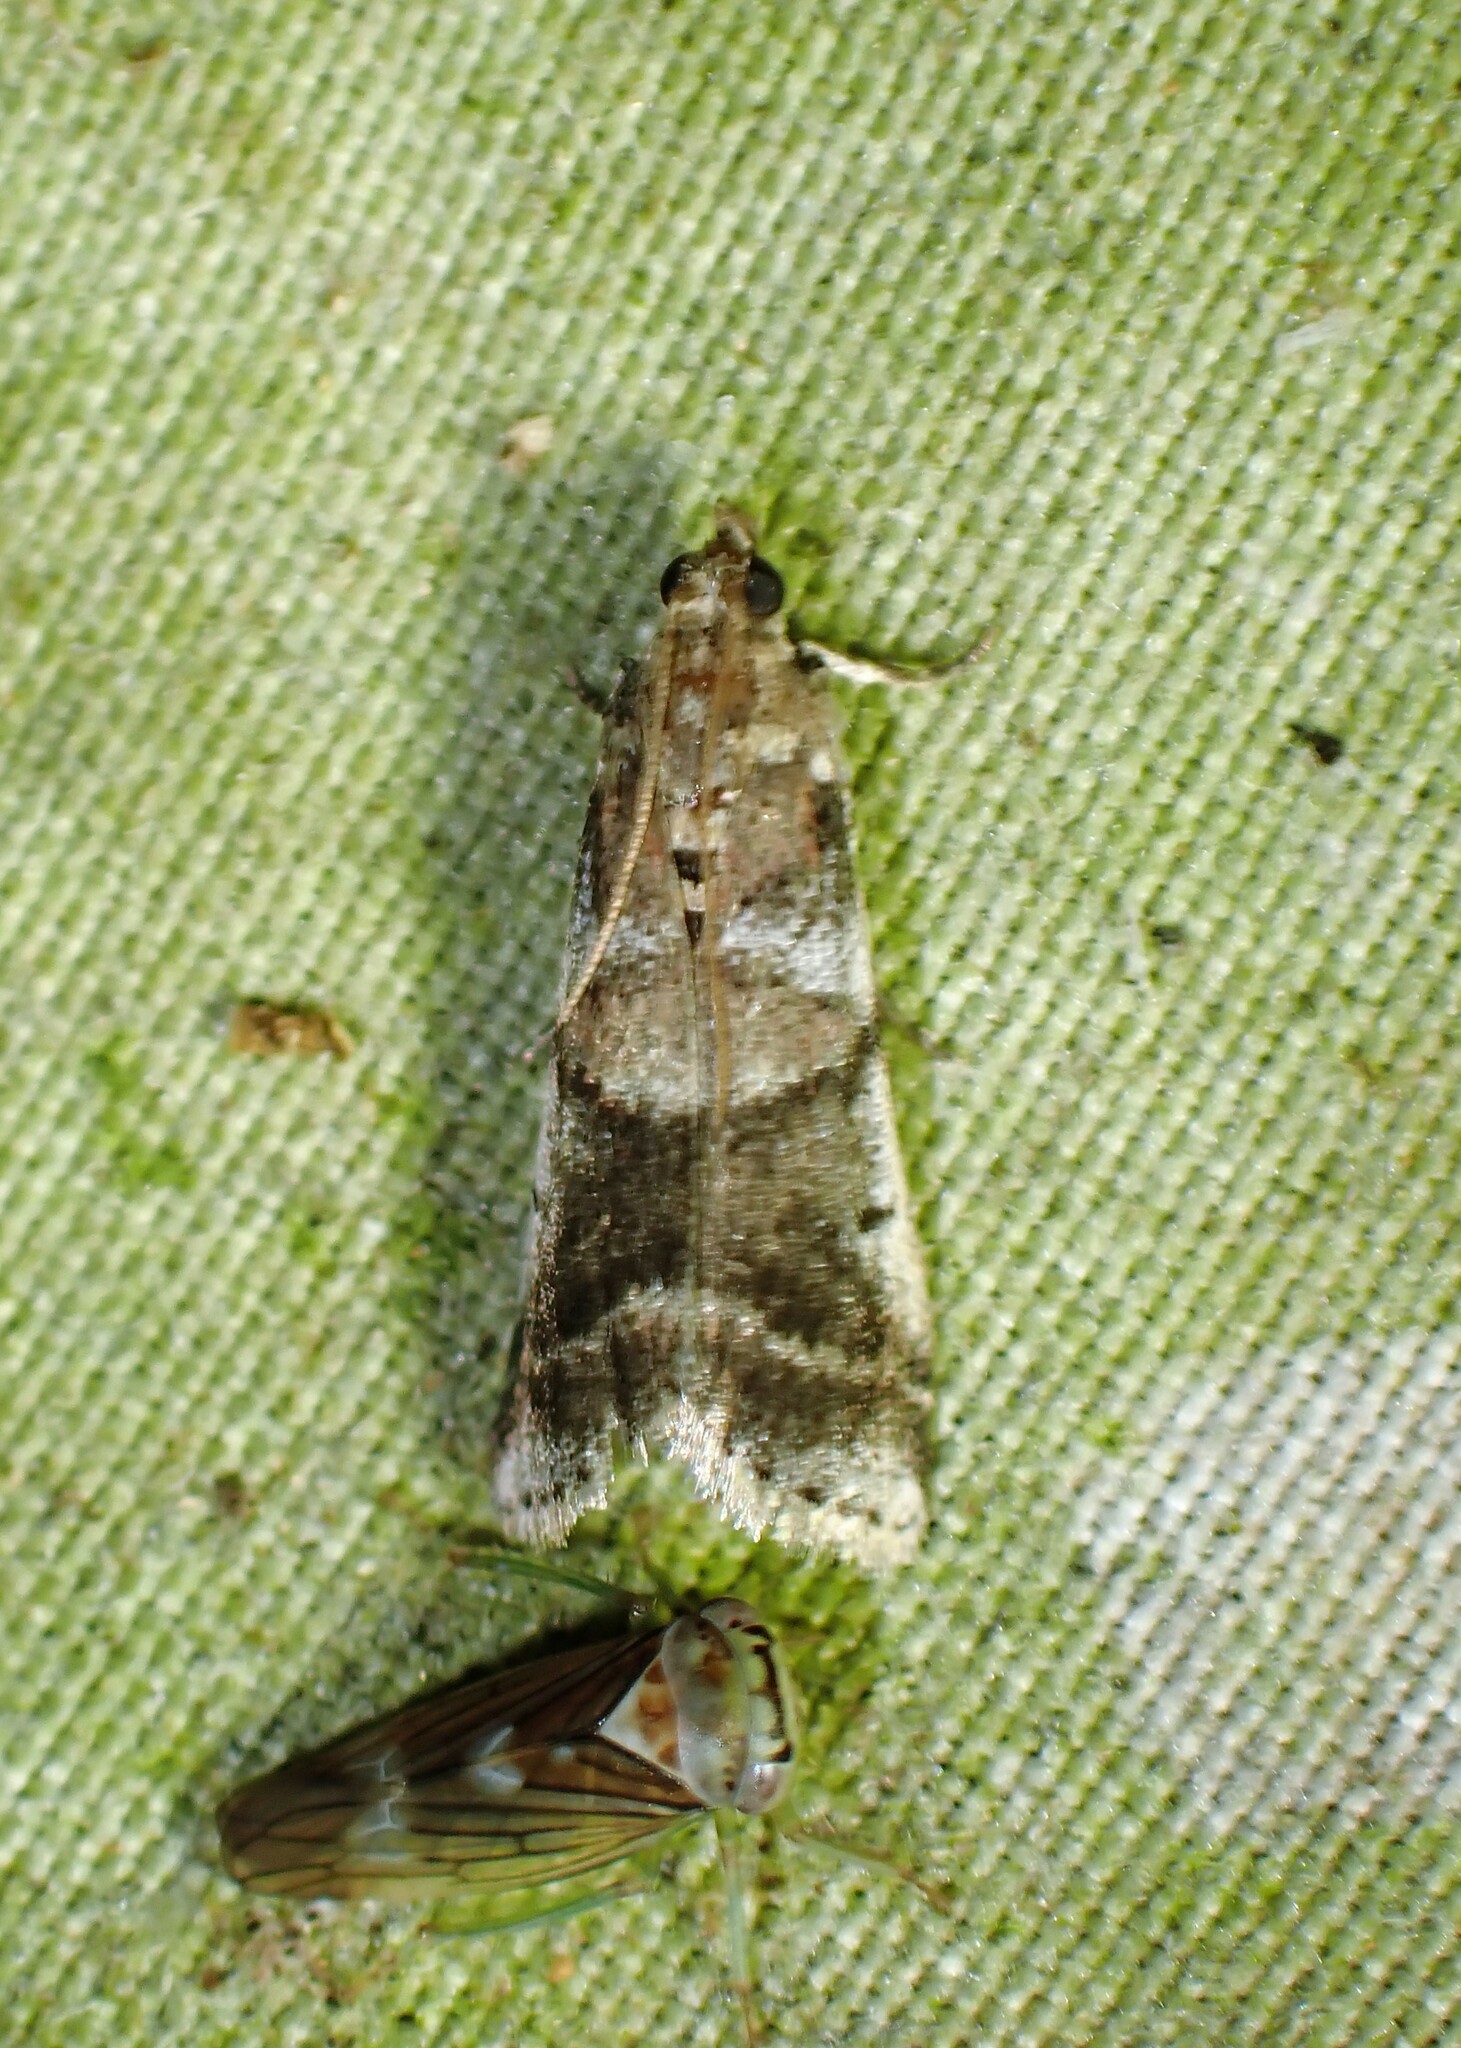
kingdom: Animalia
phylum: Arthropoda
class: Insecta
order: Lepidoptera
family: Pyralidae
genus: Acrobasis
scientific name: Acrobasis indigenella
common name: Leaf crumpler moth
